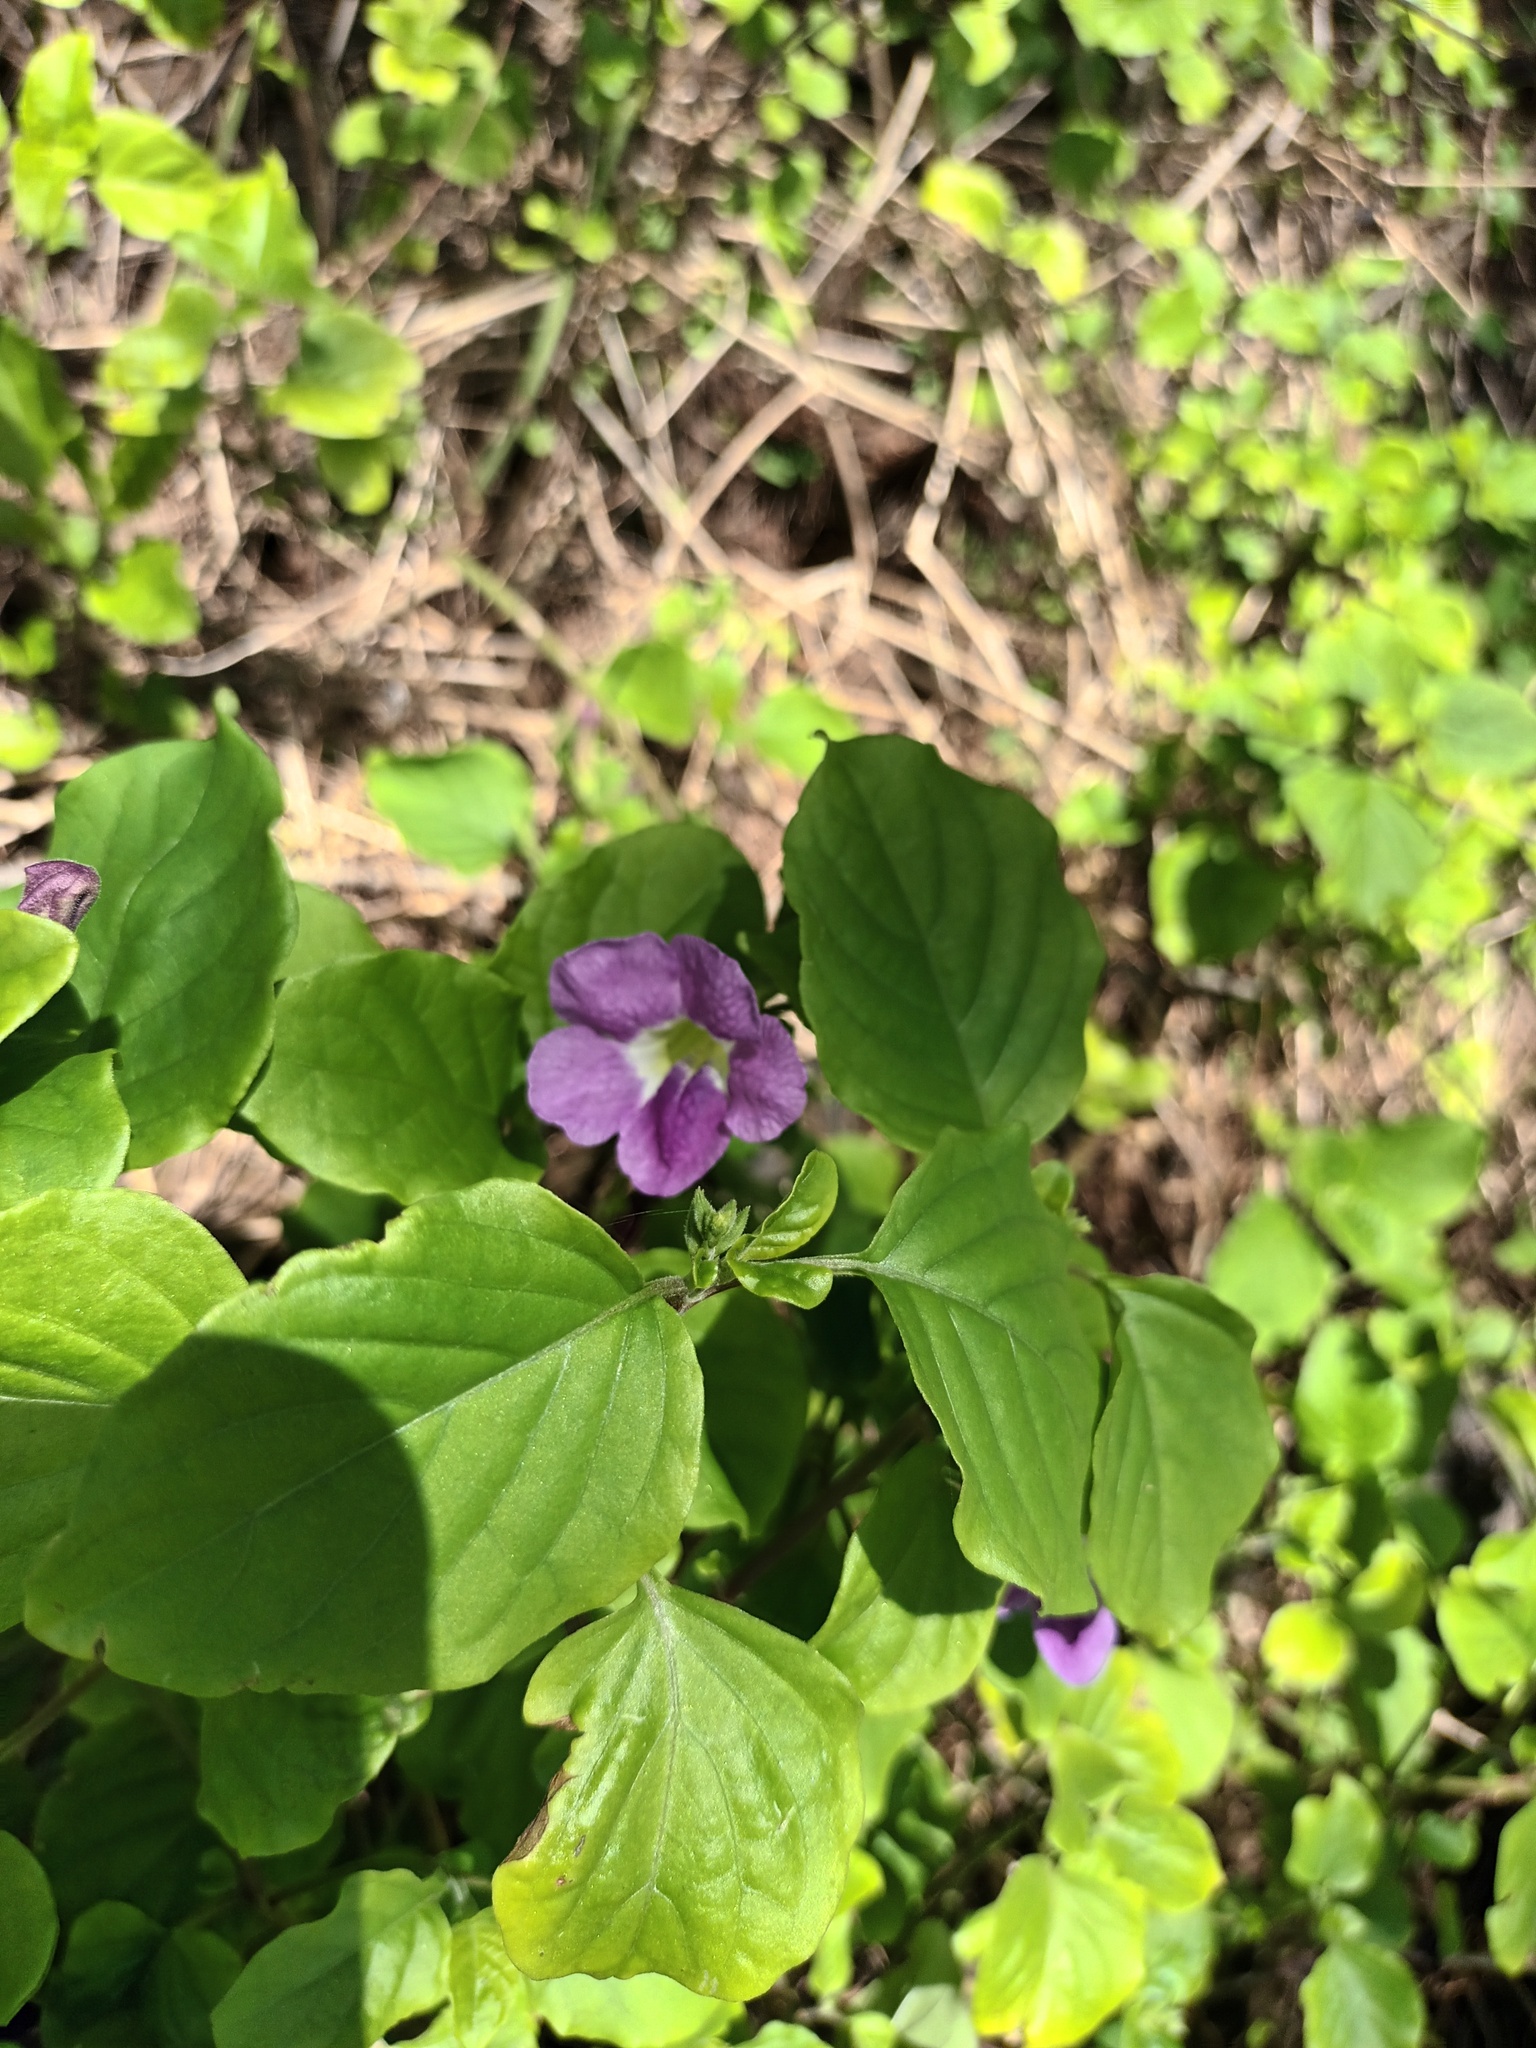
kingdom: Plantae
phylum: Tracheophyta
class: Magnoliopsida
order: Lamiales
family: Acanthaceae
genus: Asystasia
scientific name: Asystasia gangetica
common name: Chinese violet
